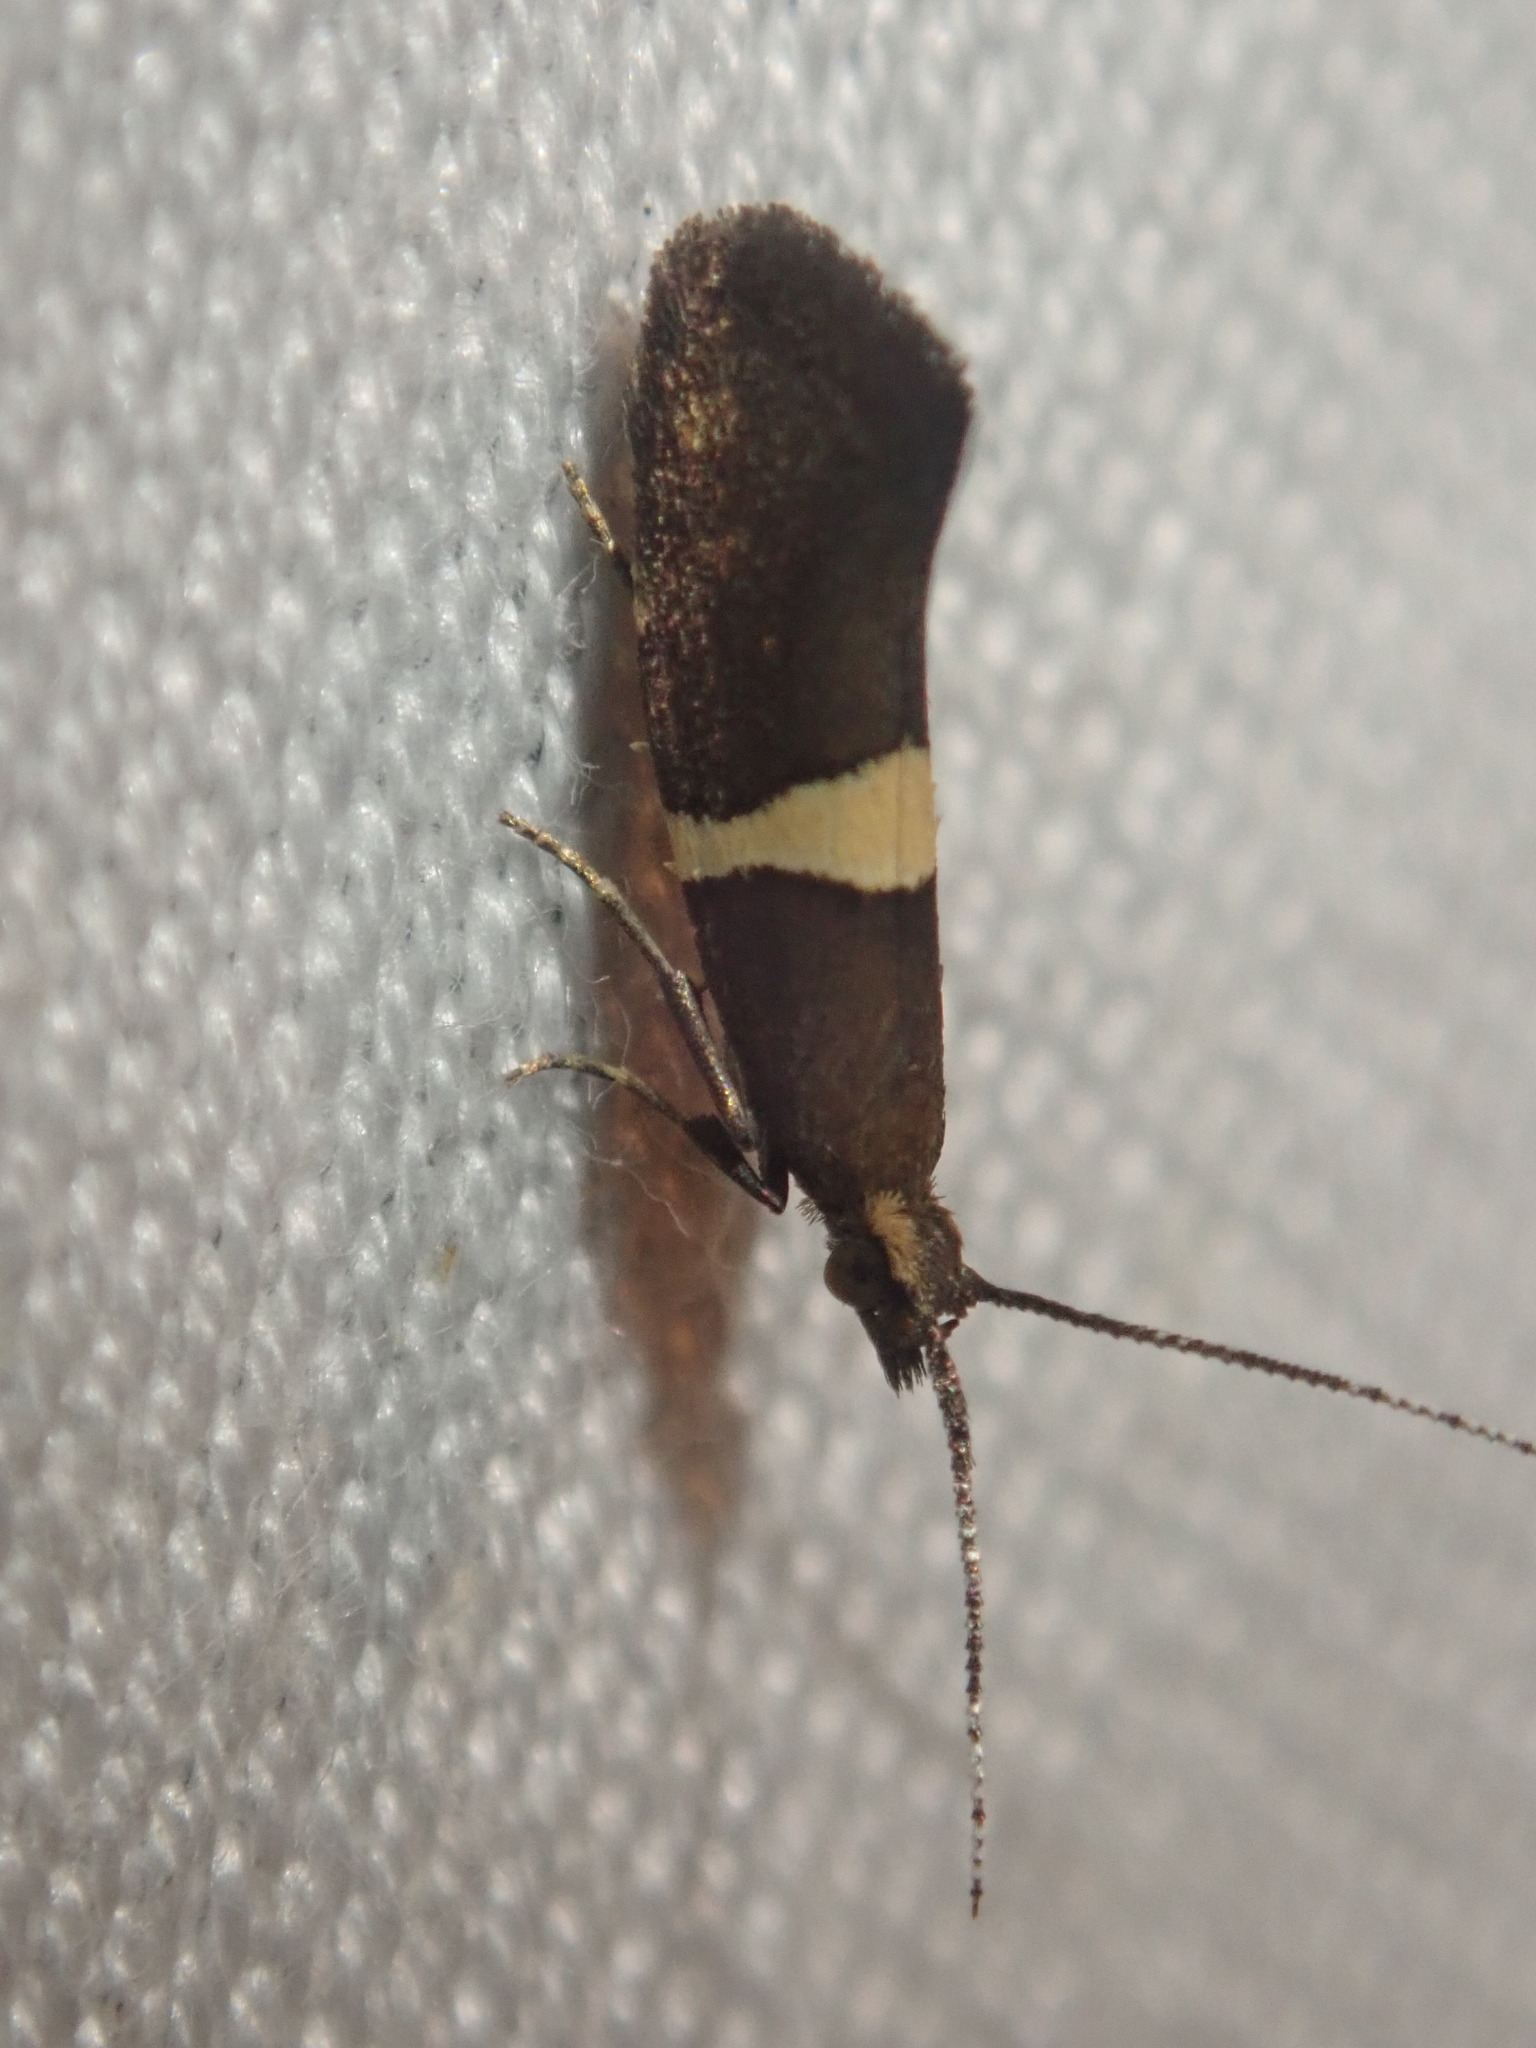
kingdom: Animalia
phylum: Arthropoda
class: Insecta
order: Lepidoptera
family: Plutellidae
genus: Eidophasia
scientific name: Eidophasia messingiella
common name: Bitter-cress smudge
